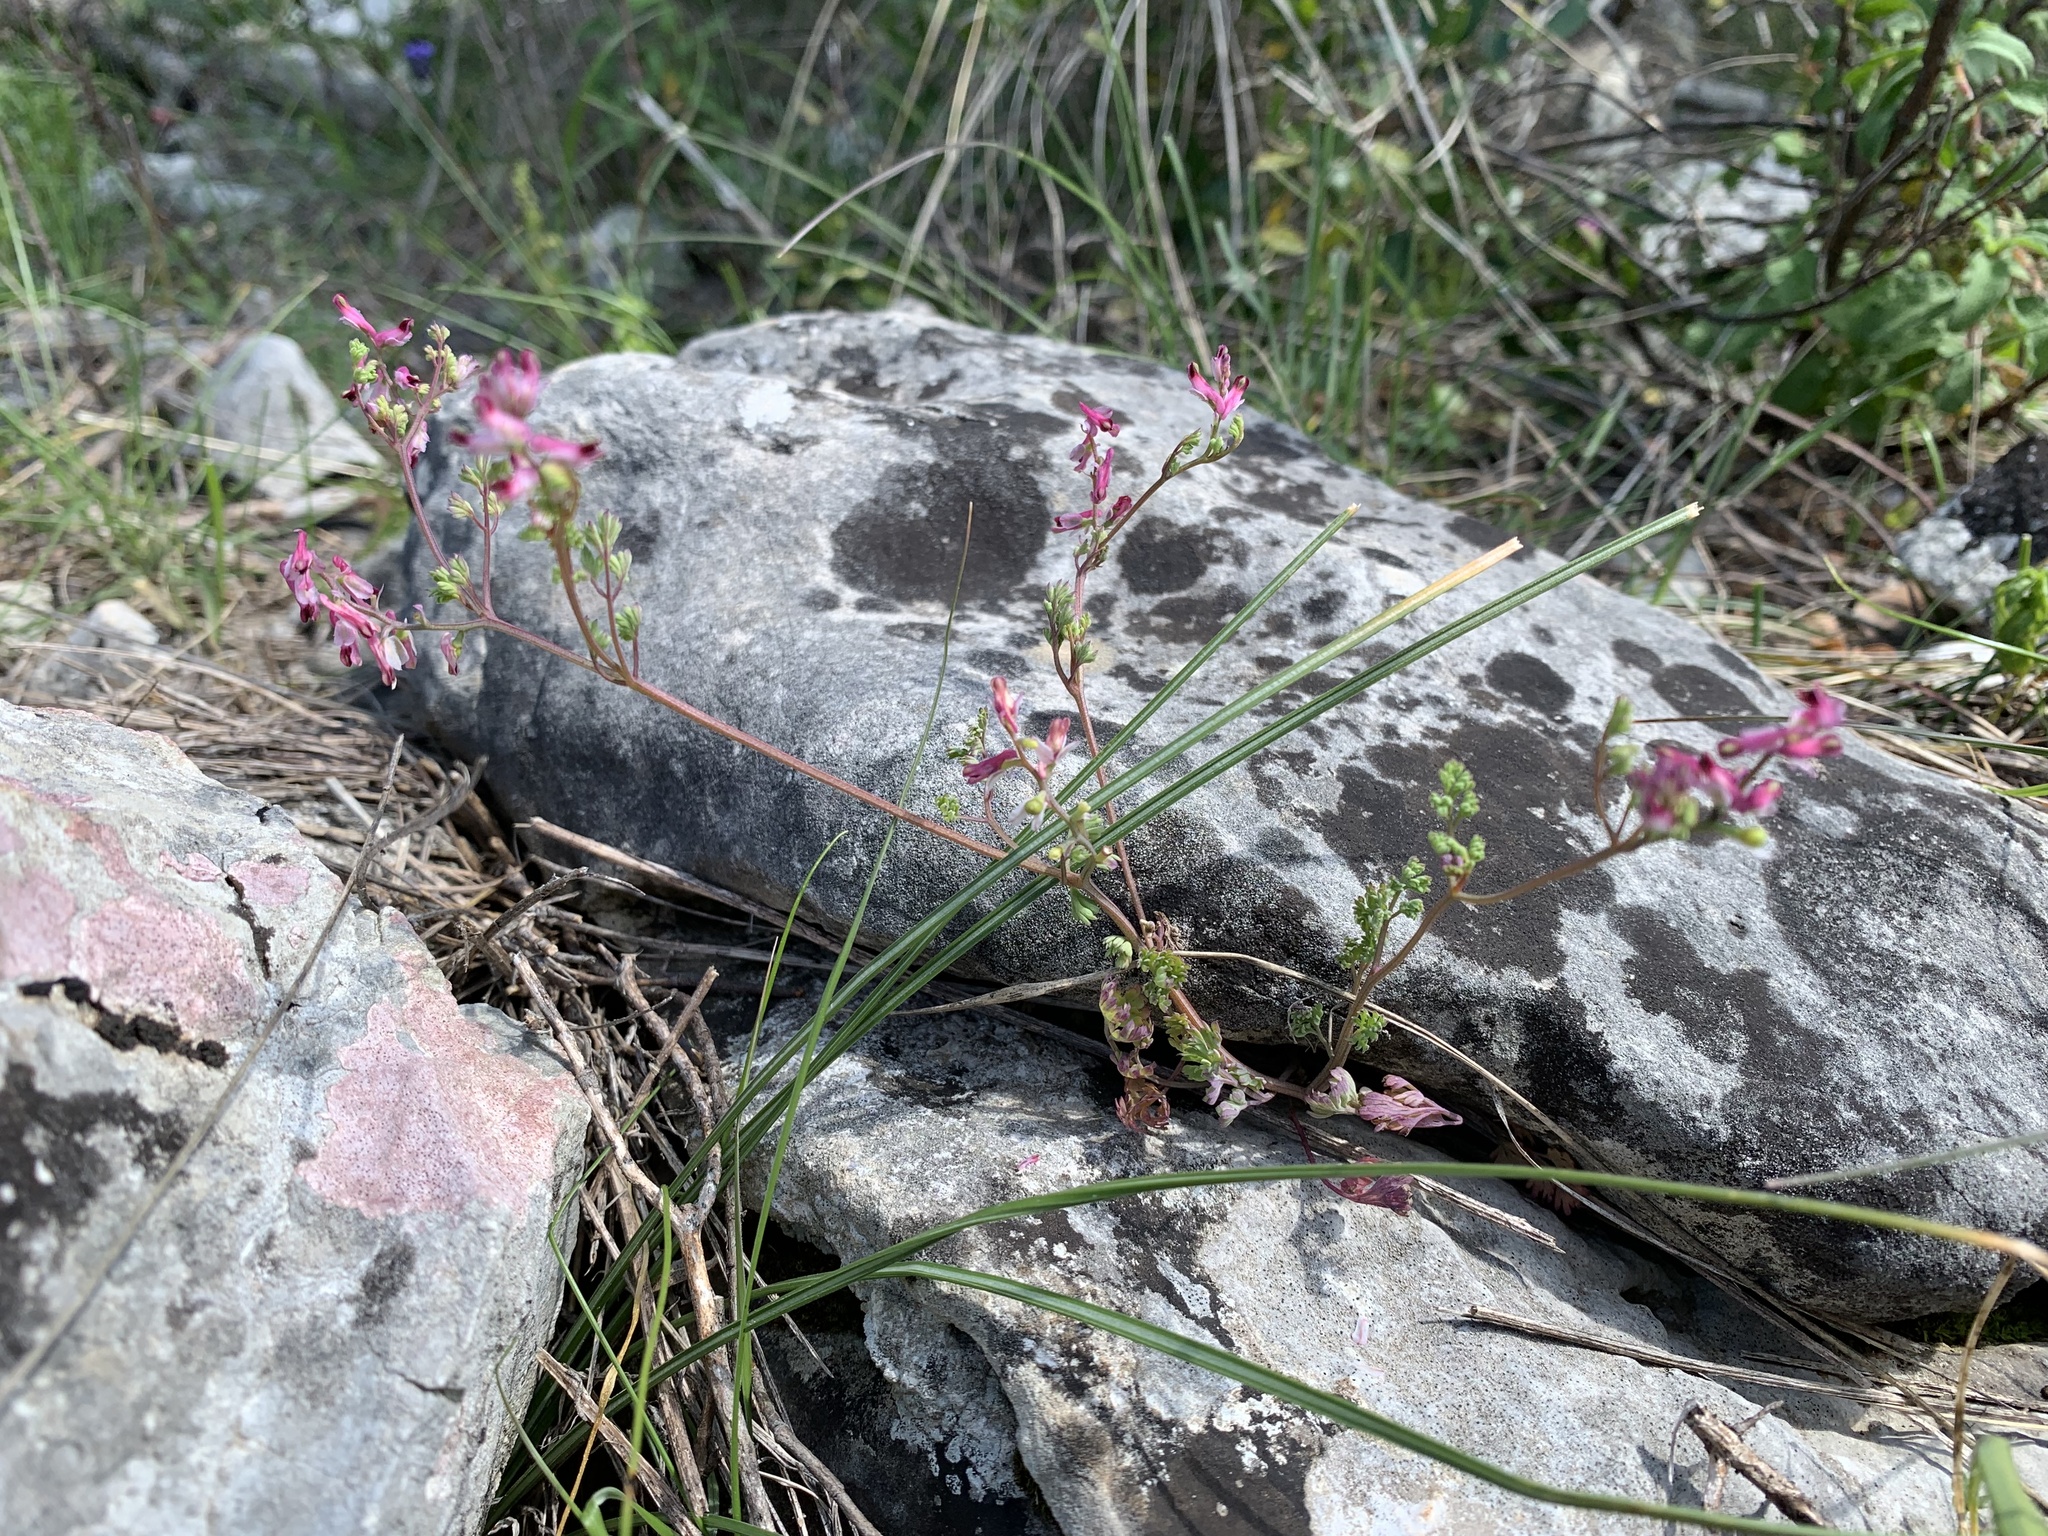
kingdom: Plantae
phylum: Tracheophyta
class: Magnoliopsida
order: Ranunculales
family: Papaveraceae
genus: Fumaria
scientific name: Fumaria kralikii
